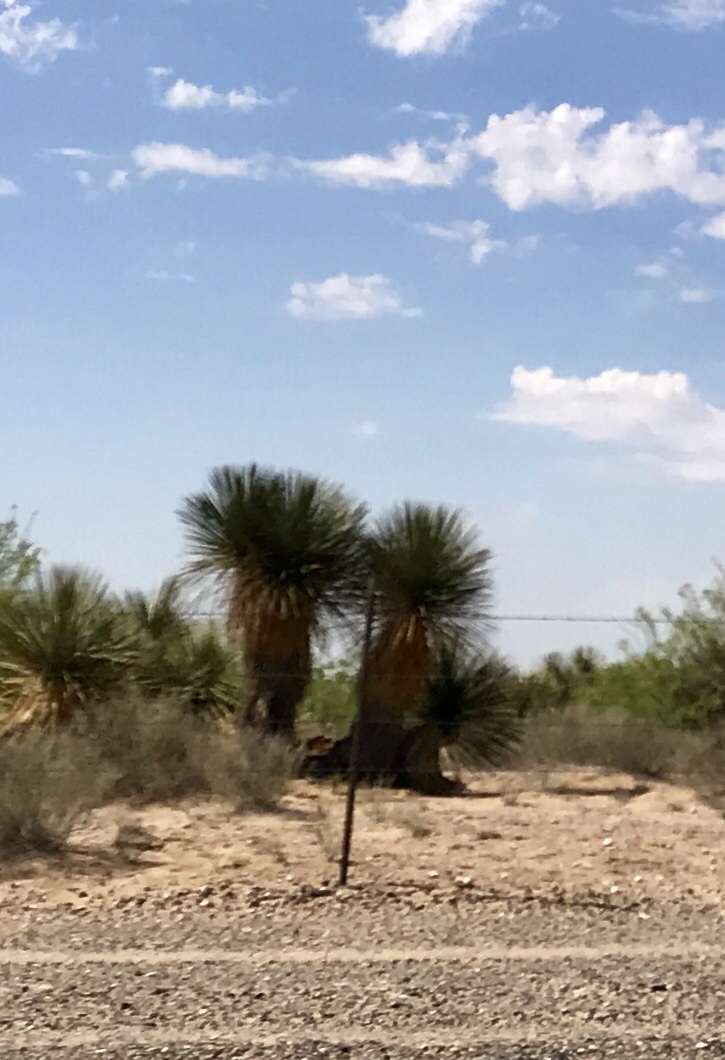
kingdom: Plantae
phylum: Tracheophyta
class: Liliopsida
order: Asparagales
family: Asparagaceae
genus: Yucca
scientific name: Yucca elata
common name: Palmella
